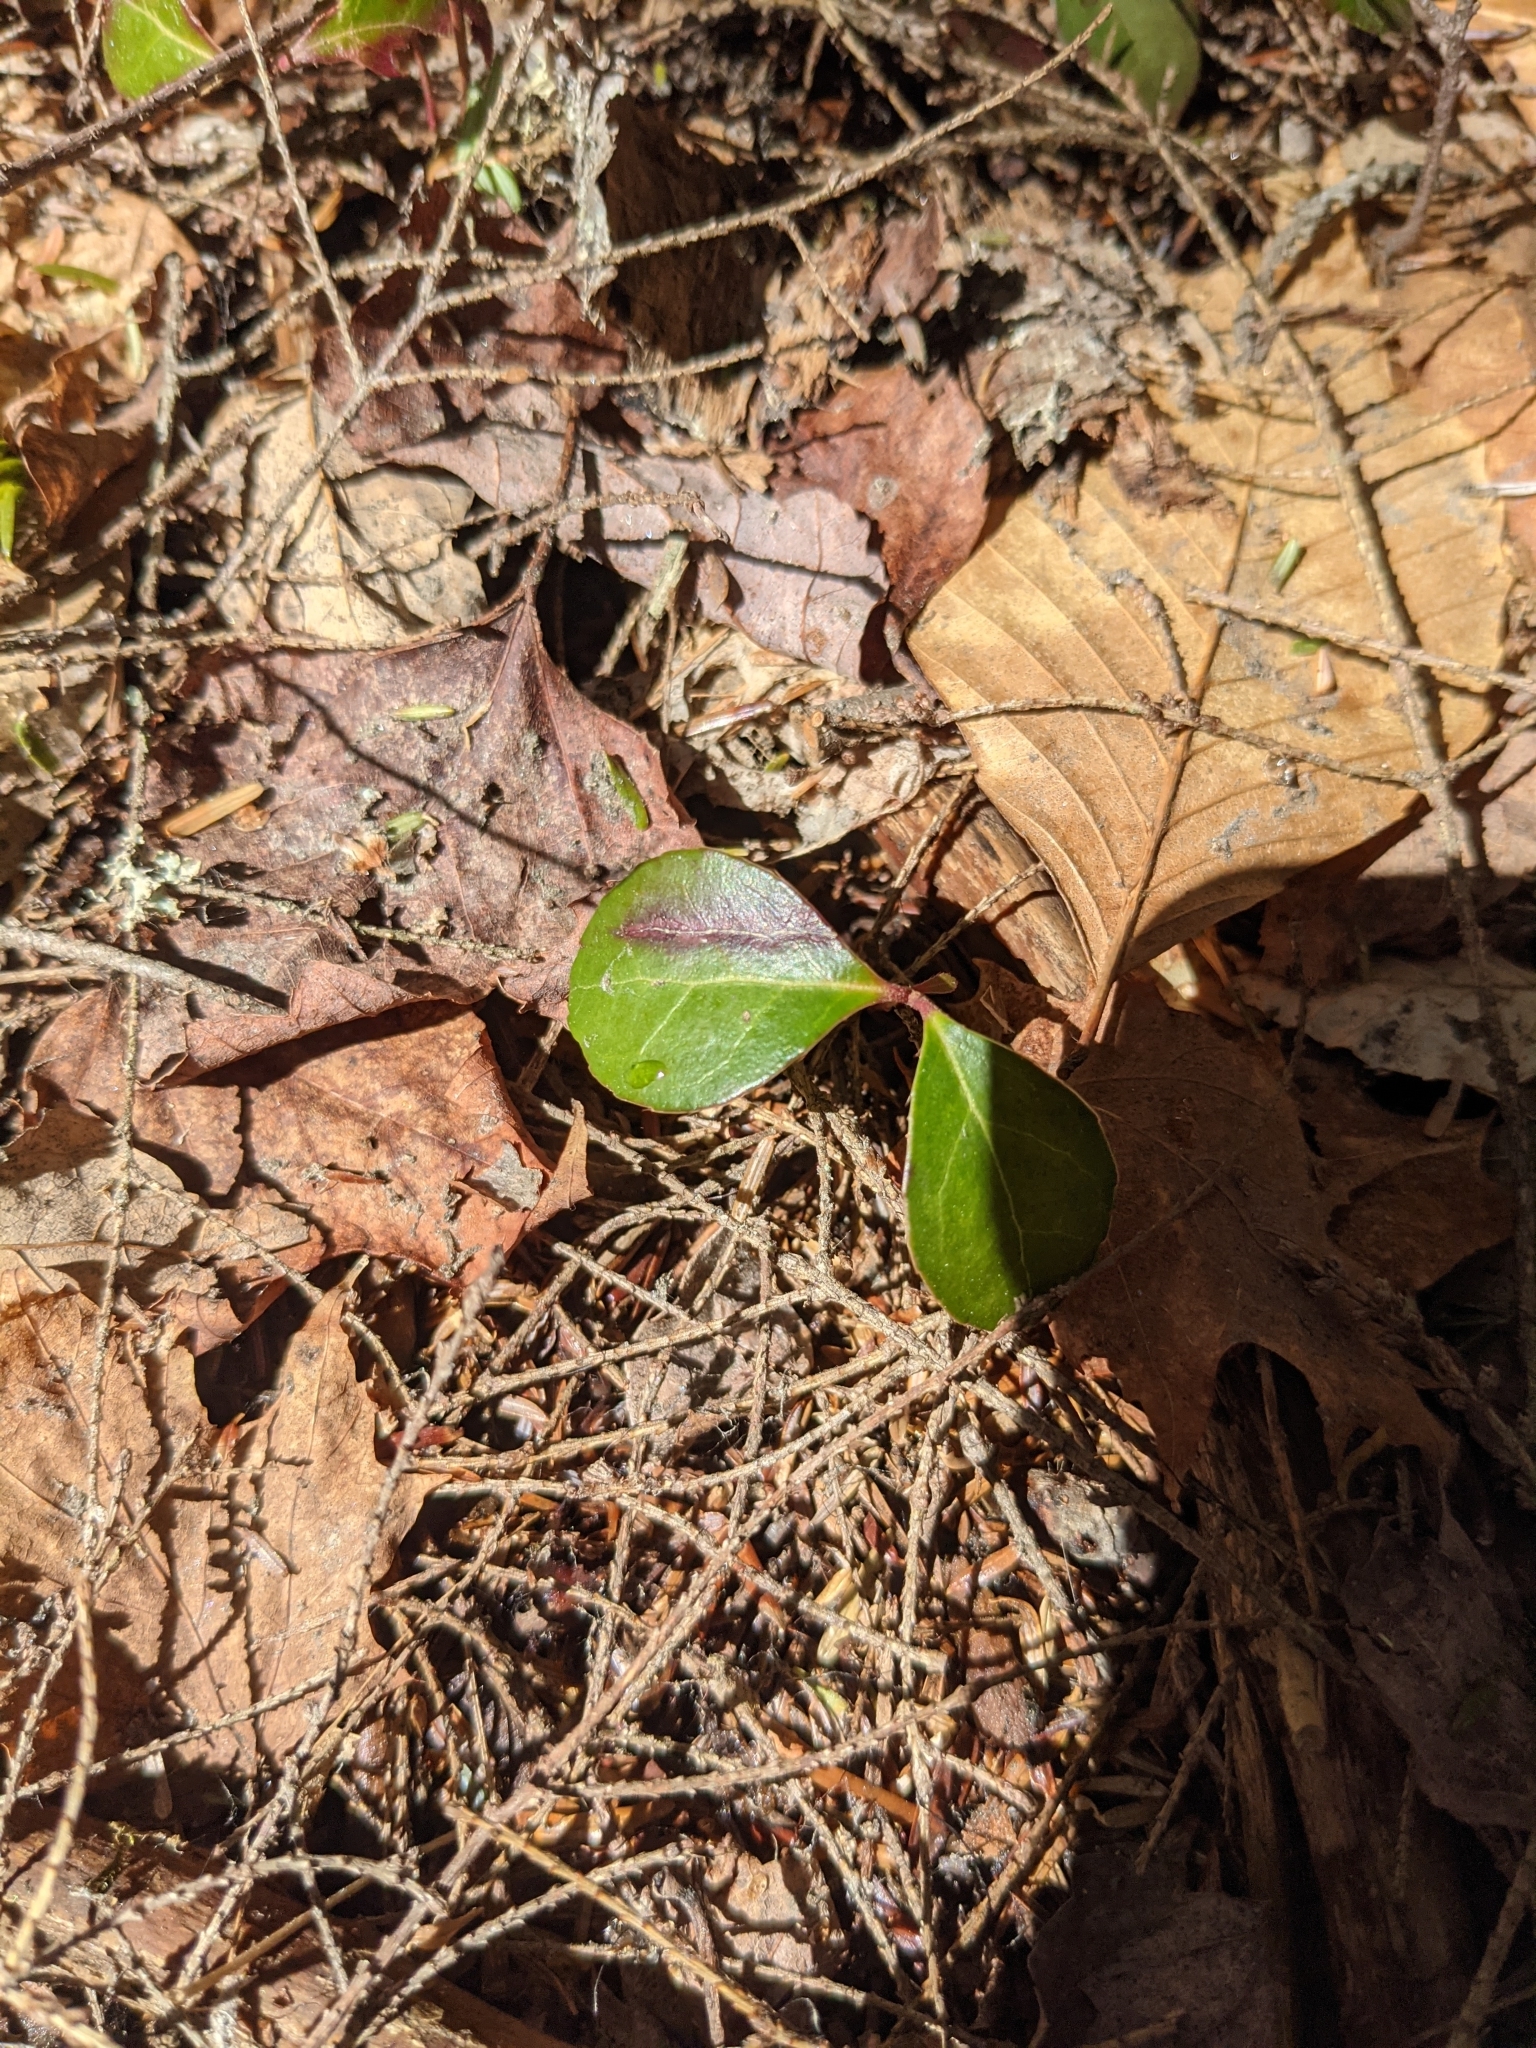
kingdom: Plantae
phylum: Tracheophyta
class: Magnoliopsida
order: Ericales
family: Ericaceae
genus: Gaultheria
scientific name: Gaultheria procumbens
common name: Checkerberry
